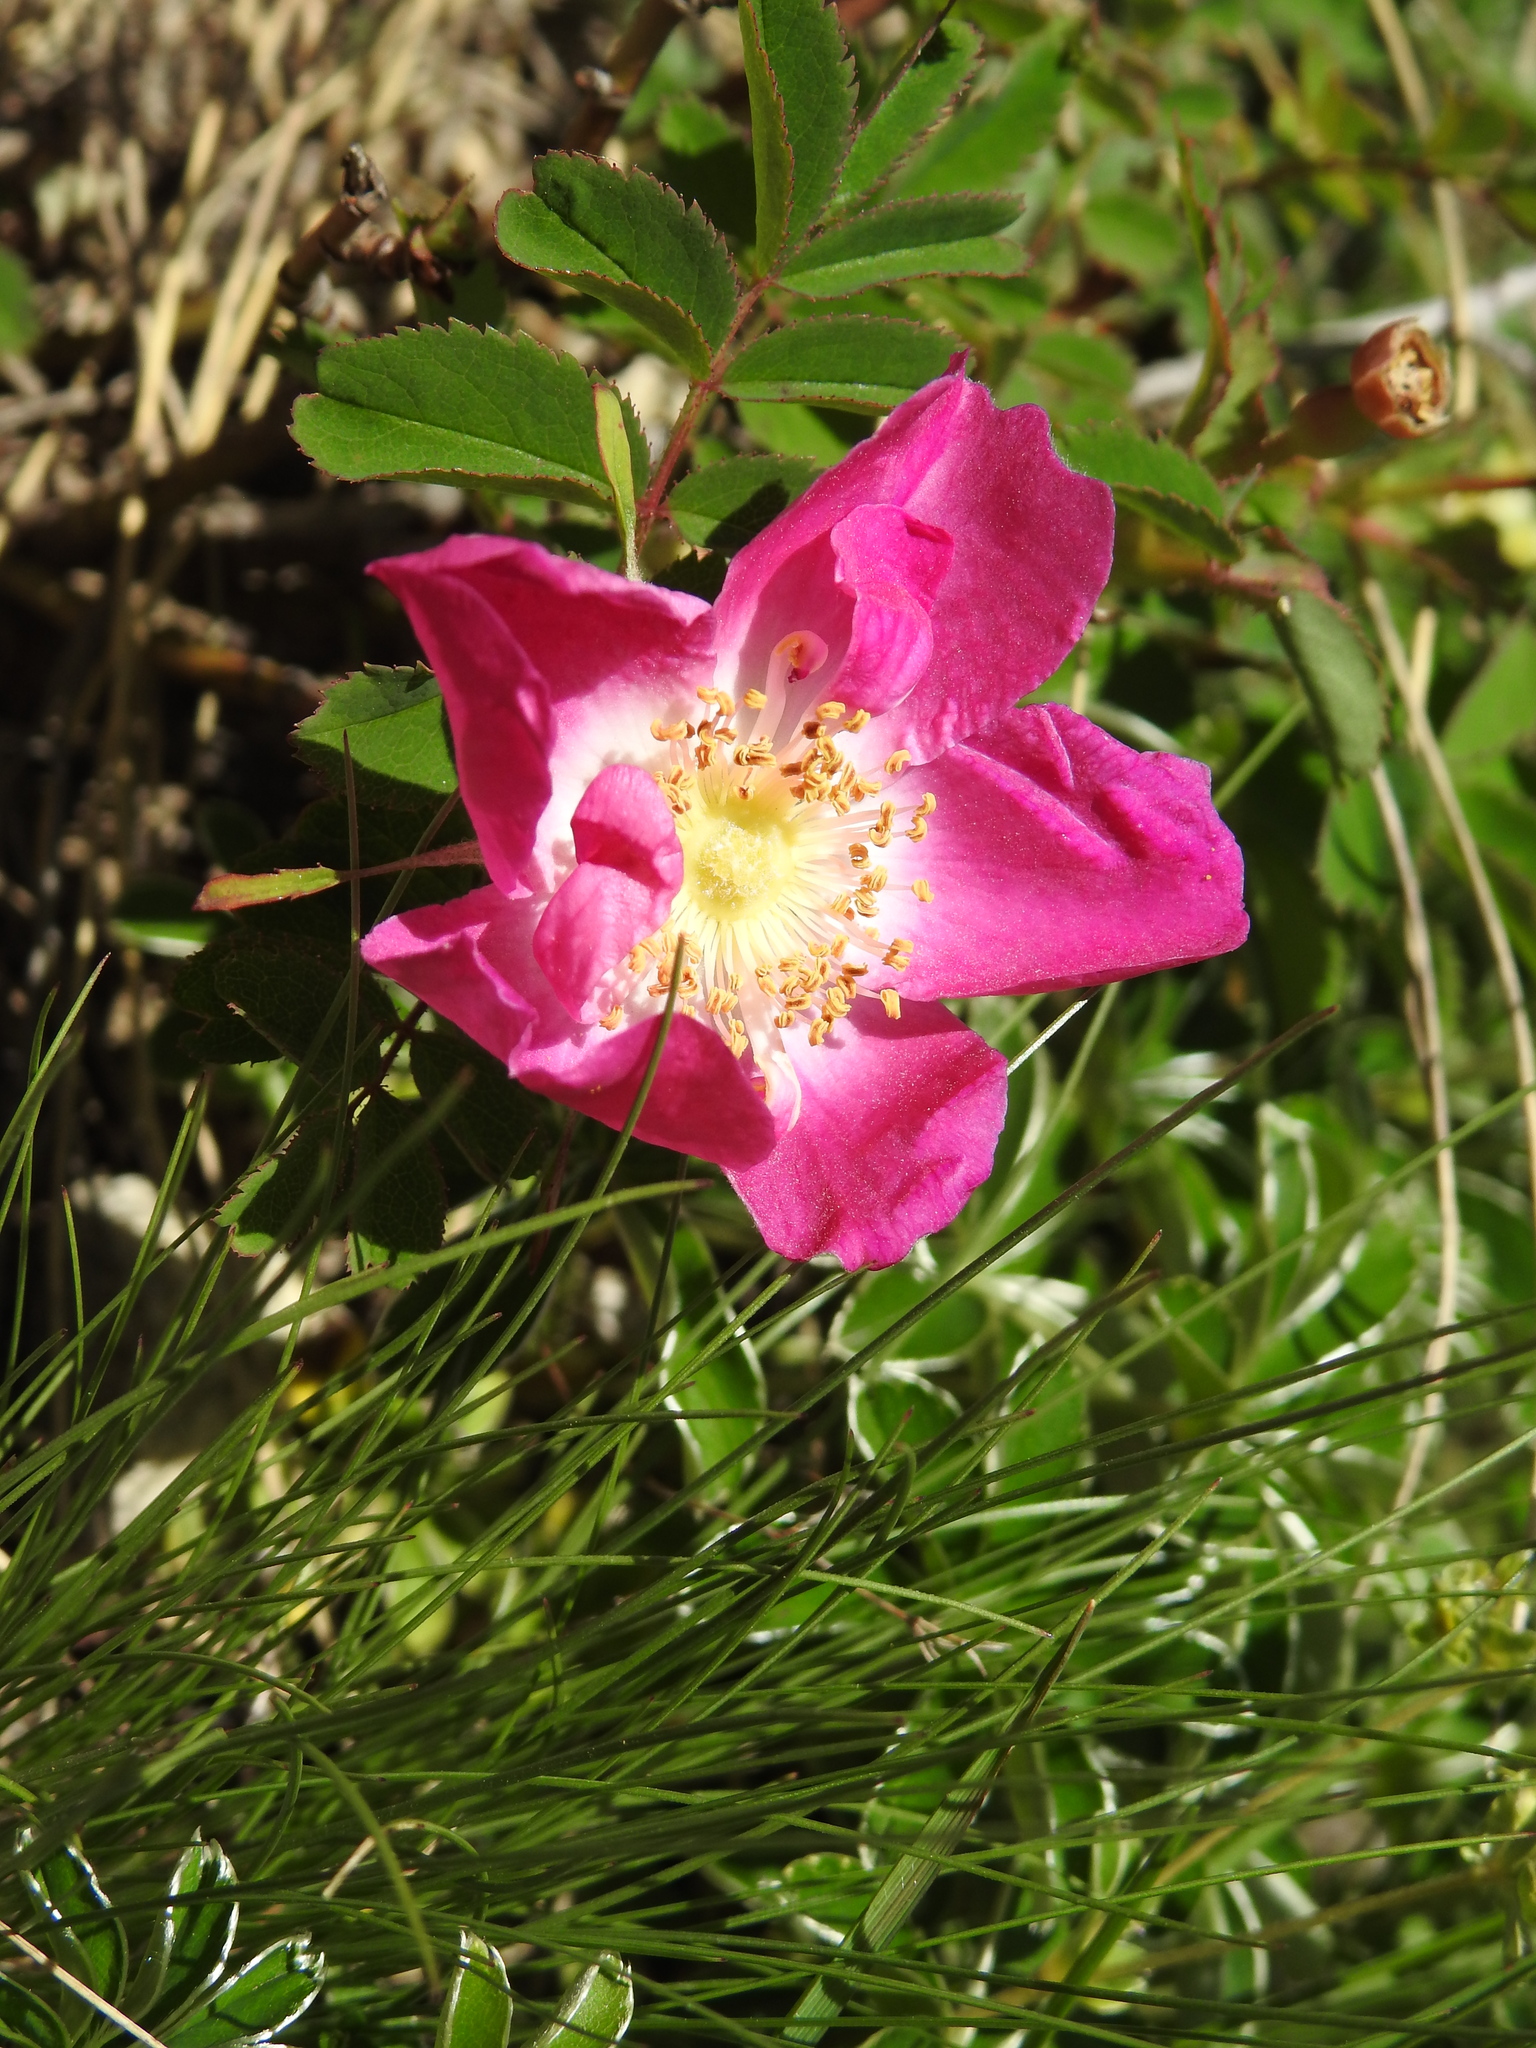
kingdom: Plantae
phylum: Tracheophyta
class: Magnoliopsida
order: Rosales
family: Rosaceae
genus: Rosa
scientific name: Rosa pendulina
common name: Alpine rose
